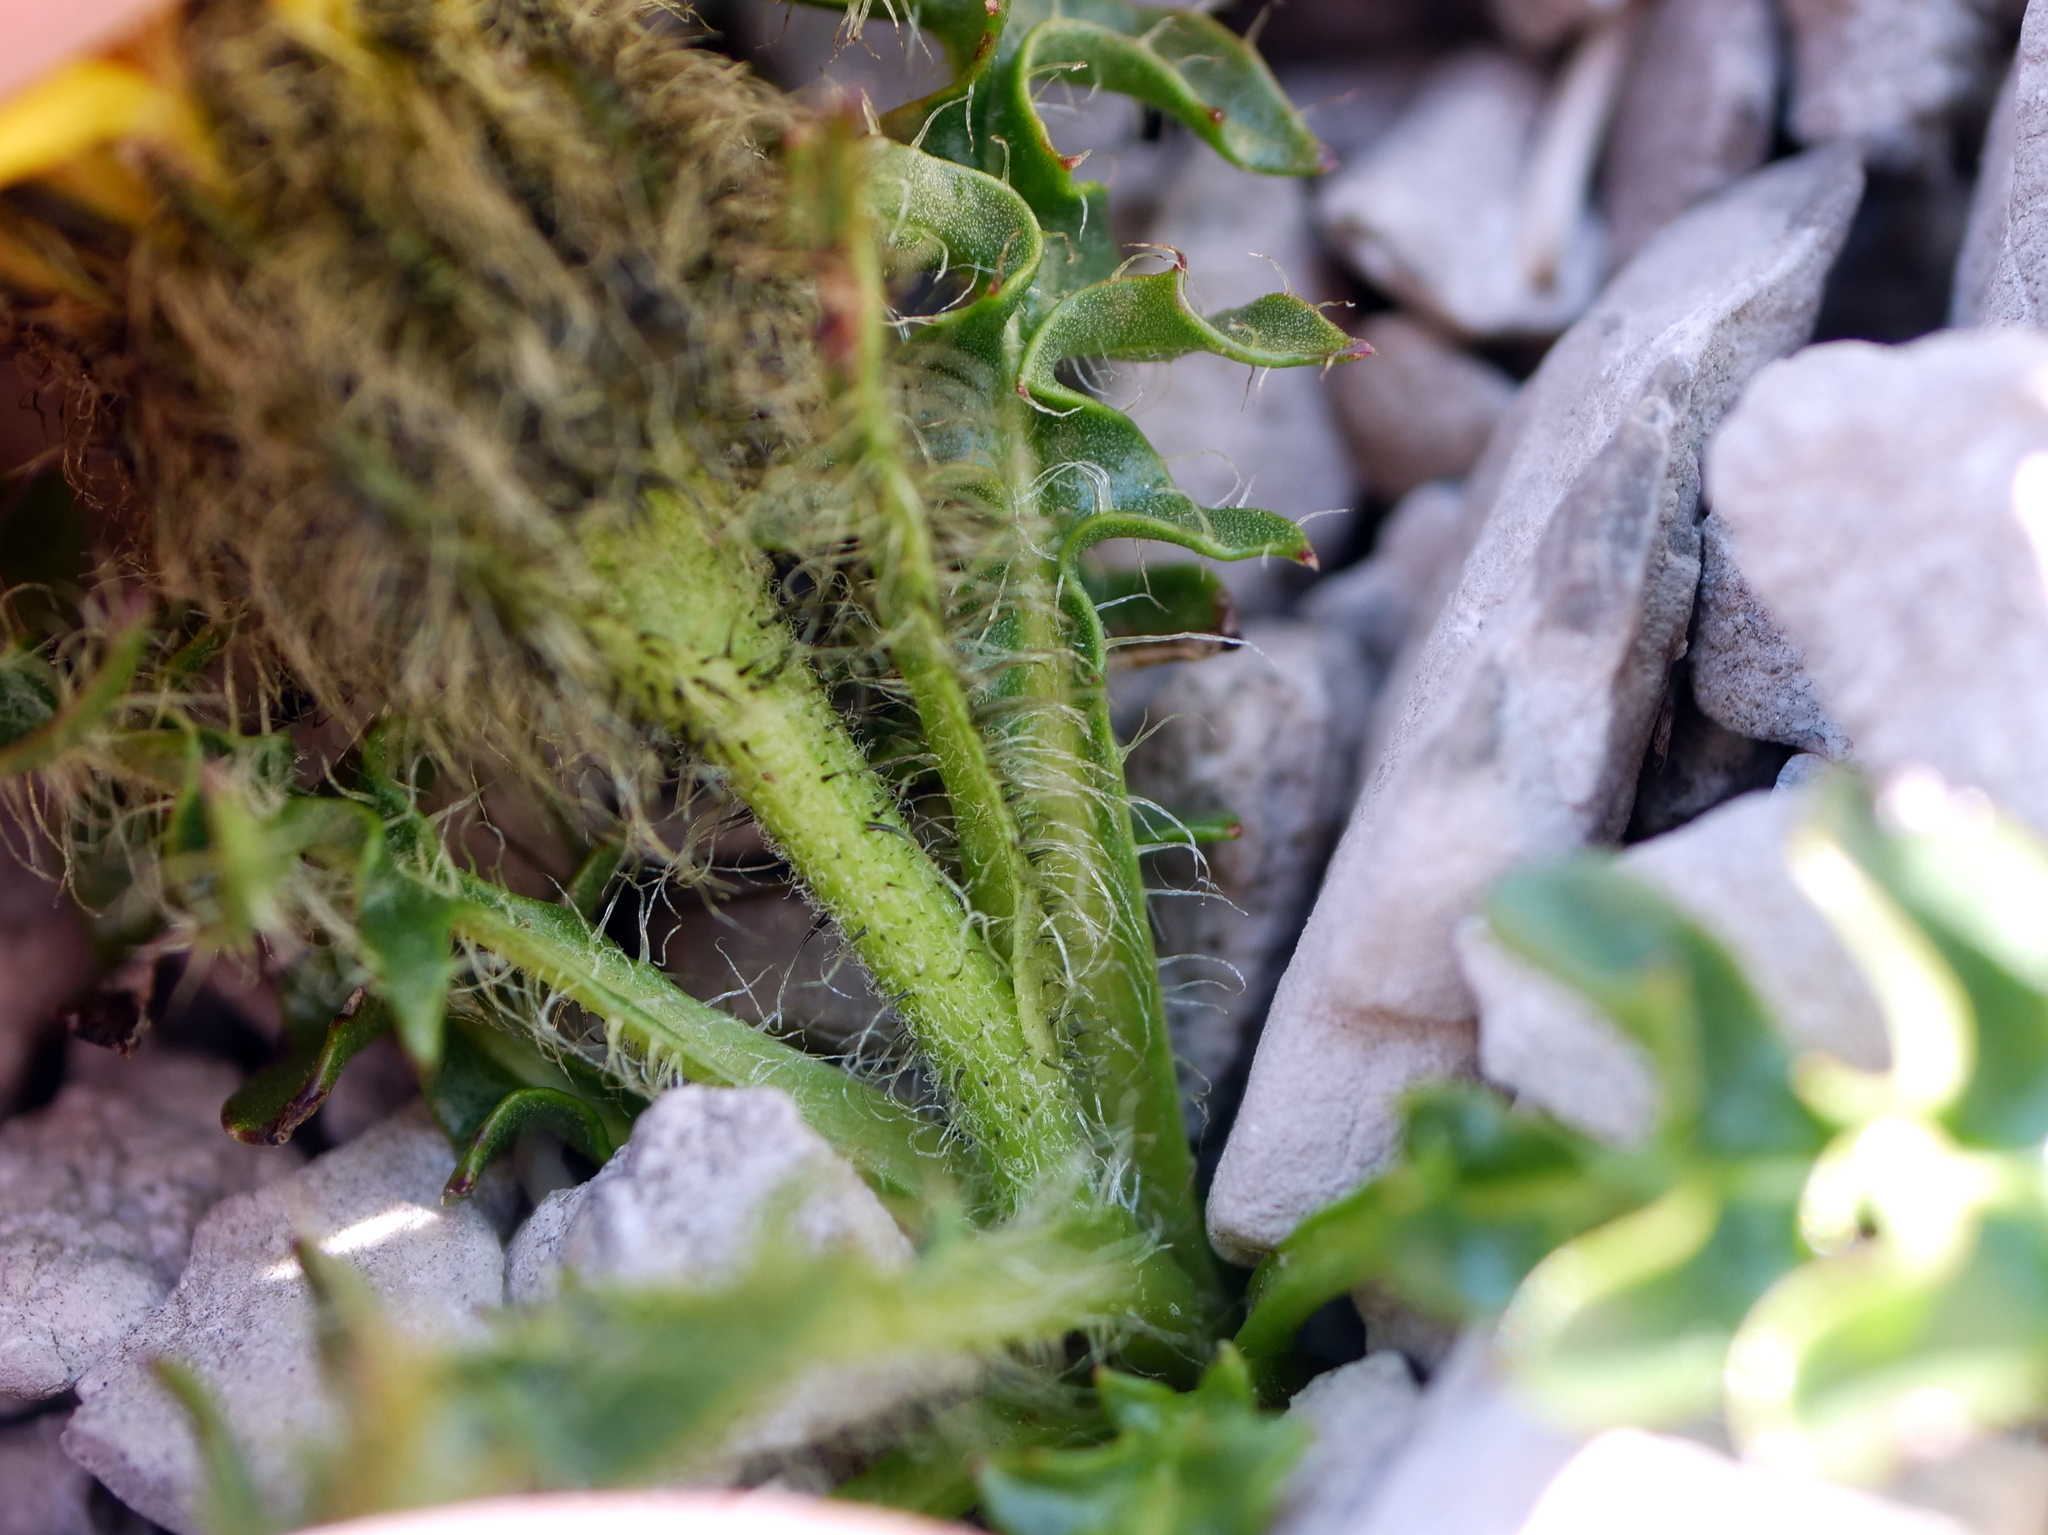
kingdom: Plantae
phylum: Tracheophyta
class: Magnoliopsida
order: Asterales
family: Asteraceae
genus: Crepis
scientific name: Crepis terglouensis
